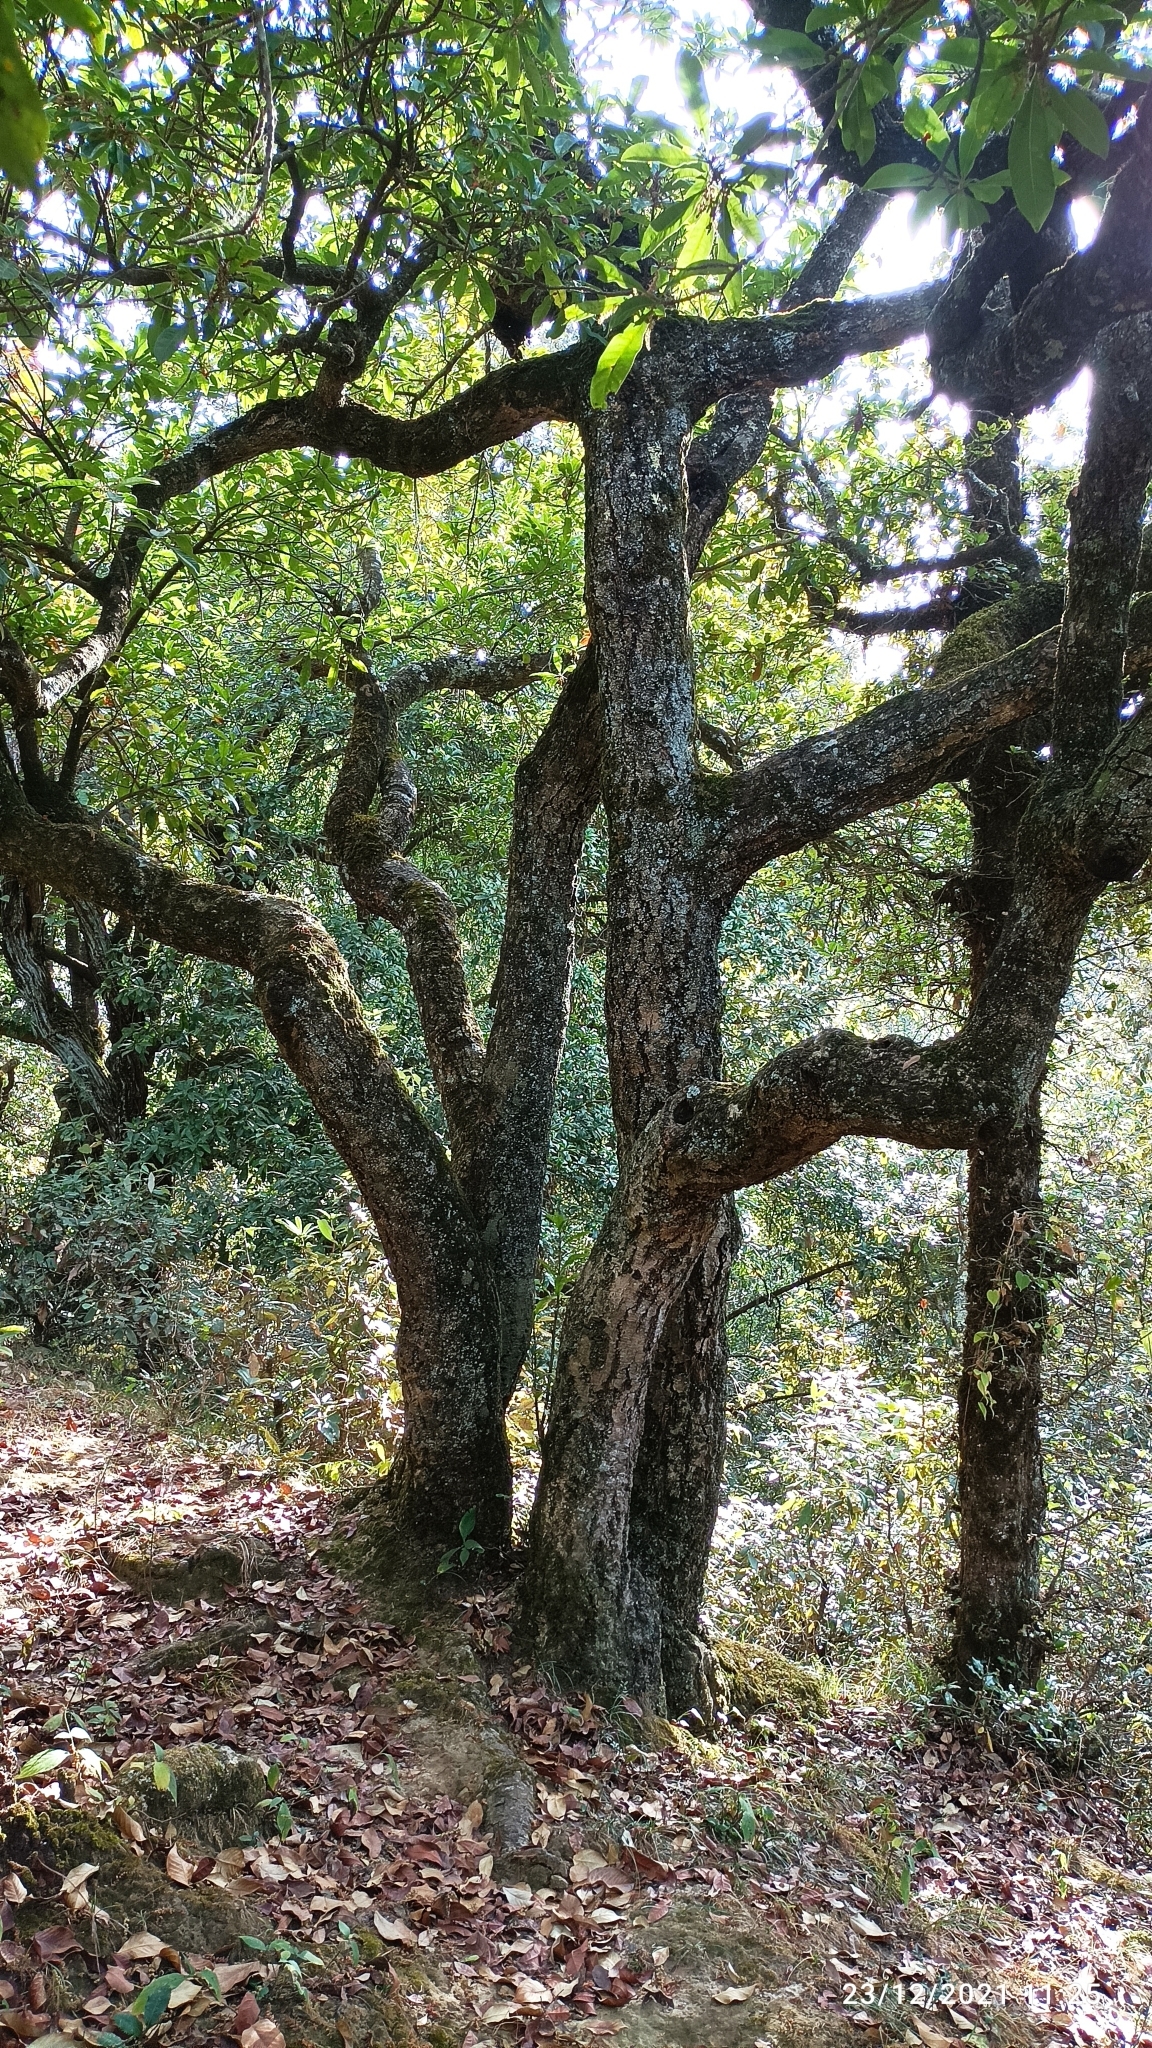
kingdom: Plantae
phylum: Tracheophyta
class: Magnoliopsida
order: Fagales
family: Myricaceae
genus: Morella
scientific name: Morella esculenta
